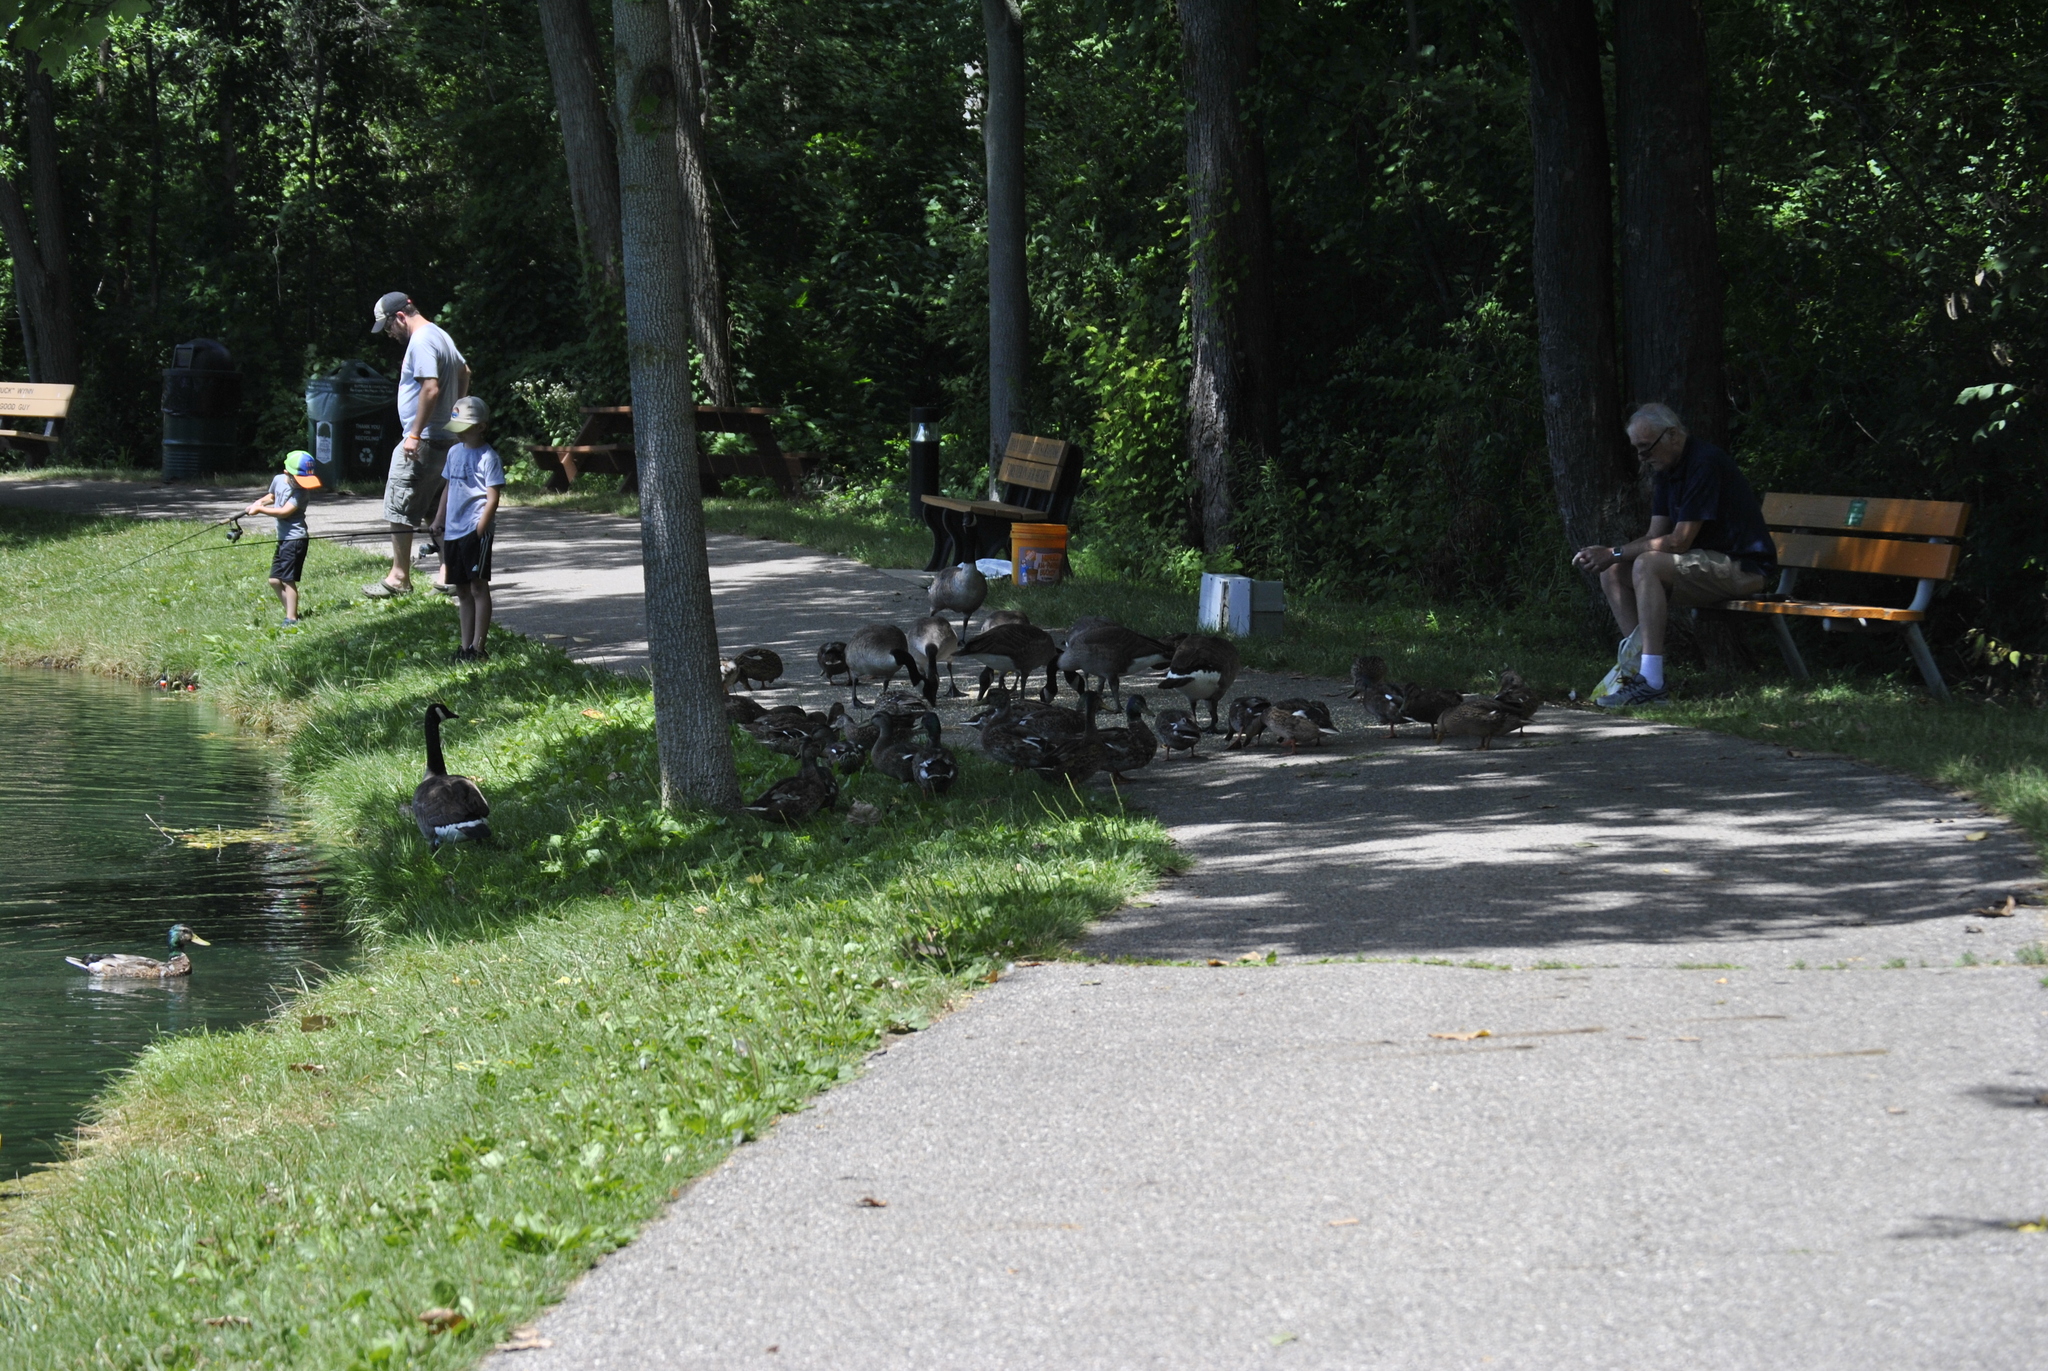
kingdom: Animalia
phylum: Chordata
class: Aves
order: Anseriformes
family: Anatidae
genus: Branta
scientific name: Branta canadensis
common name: Canada goose
